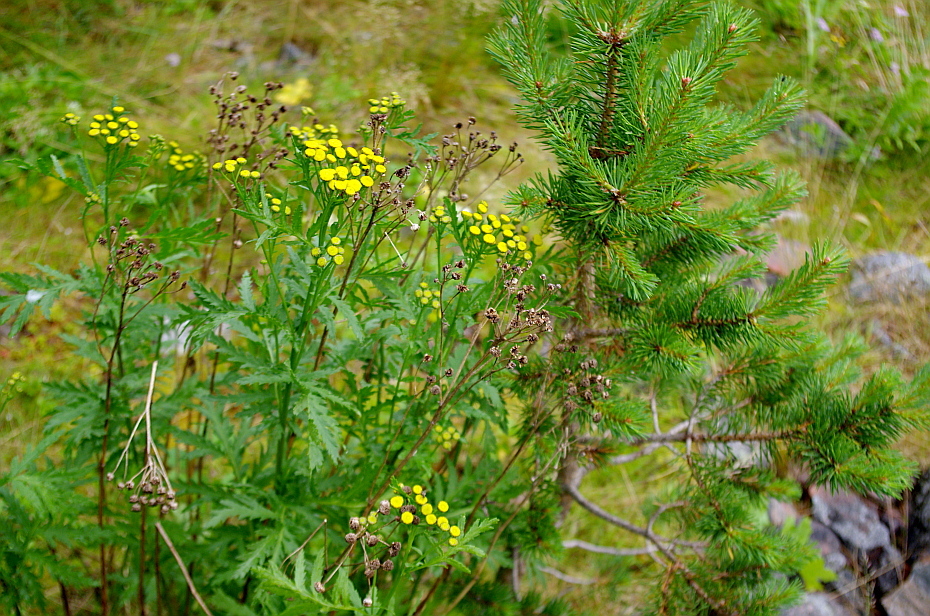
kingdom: Plantae
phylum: Tracheophyta
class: Magnoliopsida
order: Asterales
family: Asteraceae
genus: Tanacetum
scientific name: Tanacetum vulgare
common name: Common tansy
